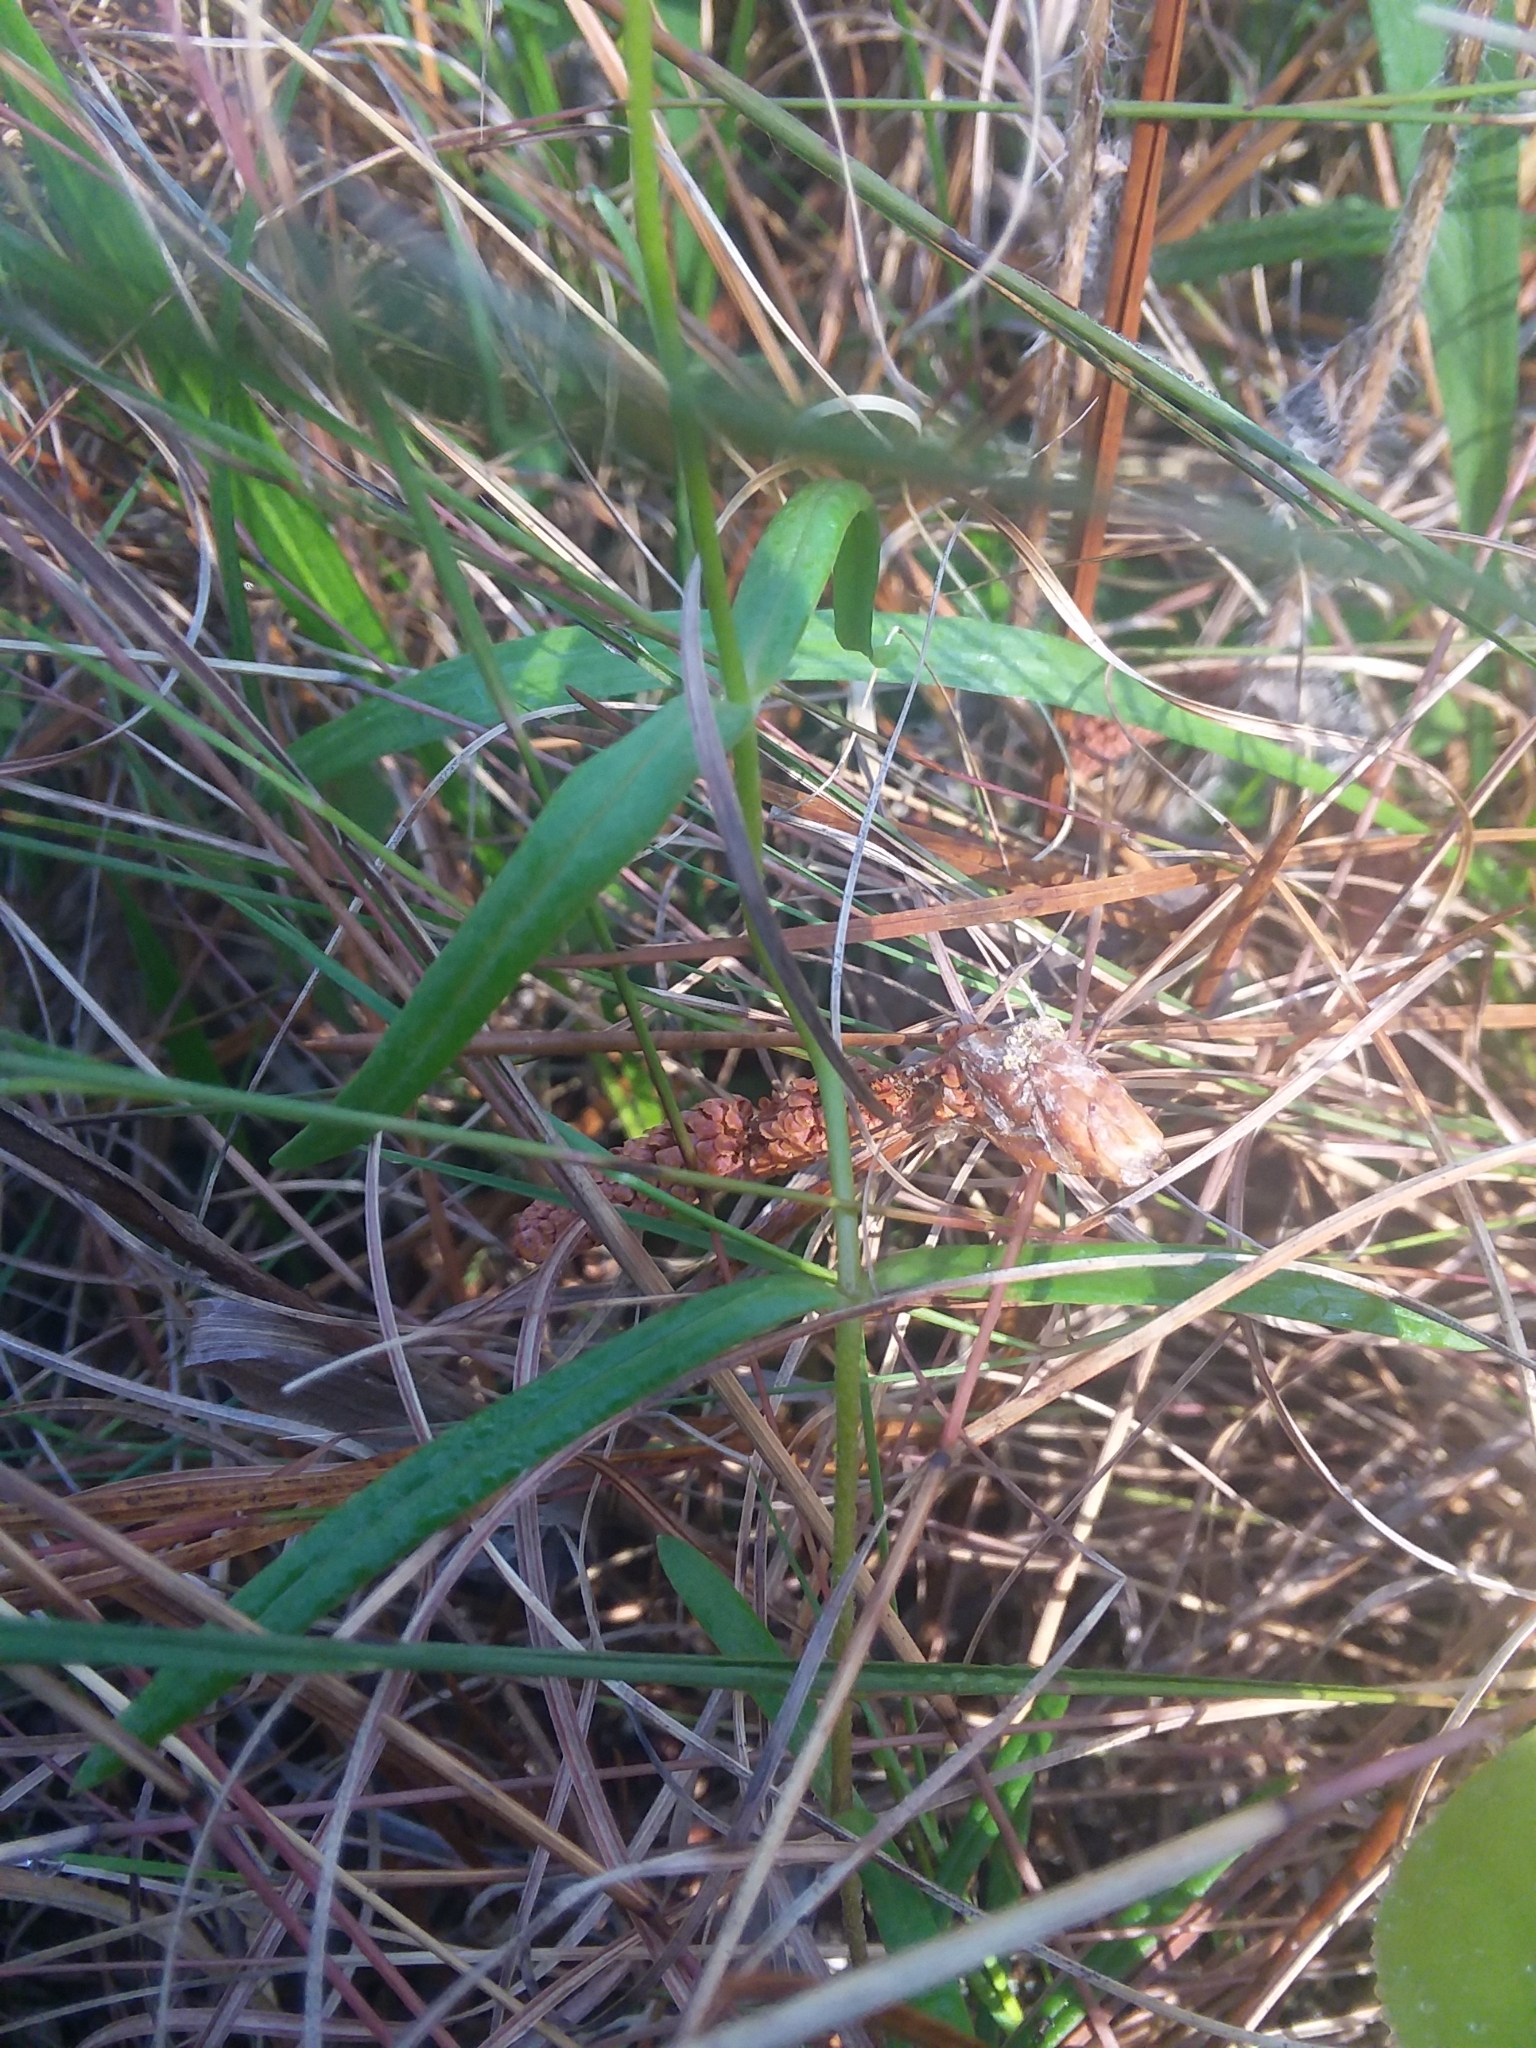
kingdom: Plantae
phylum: Tracheophyta
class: Magnoliopsida
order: Ericales
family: Polemoniaceae
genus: Phlox
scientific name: Phlox pilosa
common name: Prairie phlox
